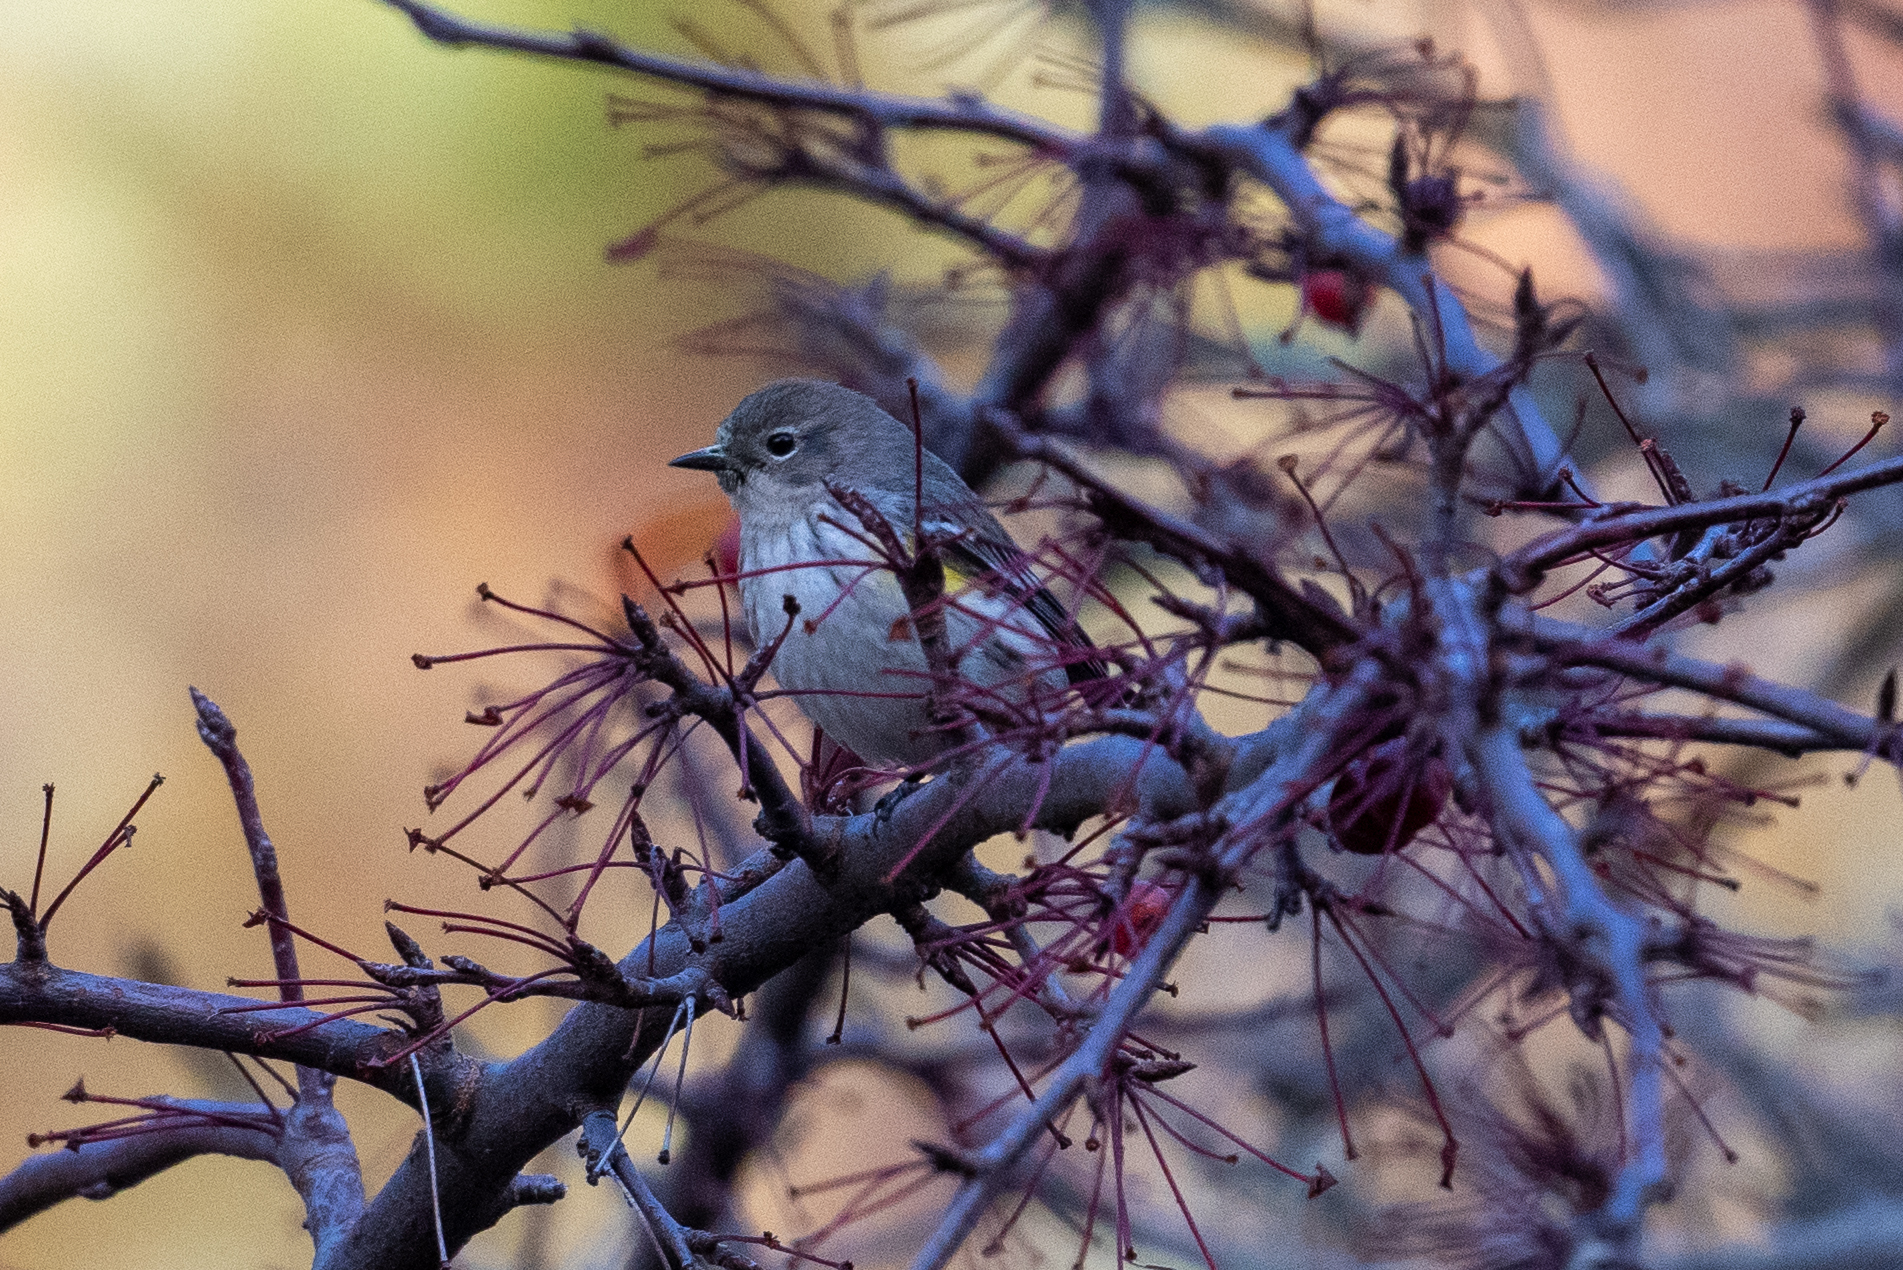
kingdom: Animalia
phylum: Chordata
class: Aves
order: Passeriformes
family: Parulidae
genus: Setophaga
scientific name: Setophaga coronata
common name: Myrtle warbler
